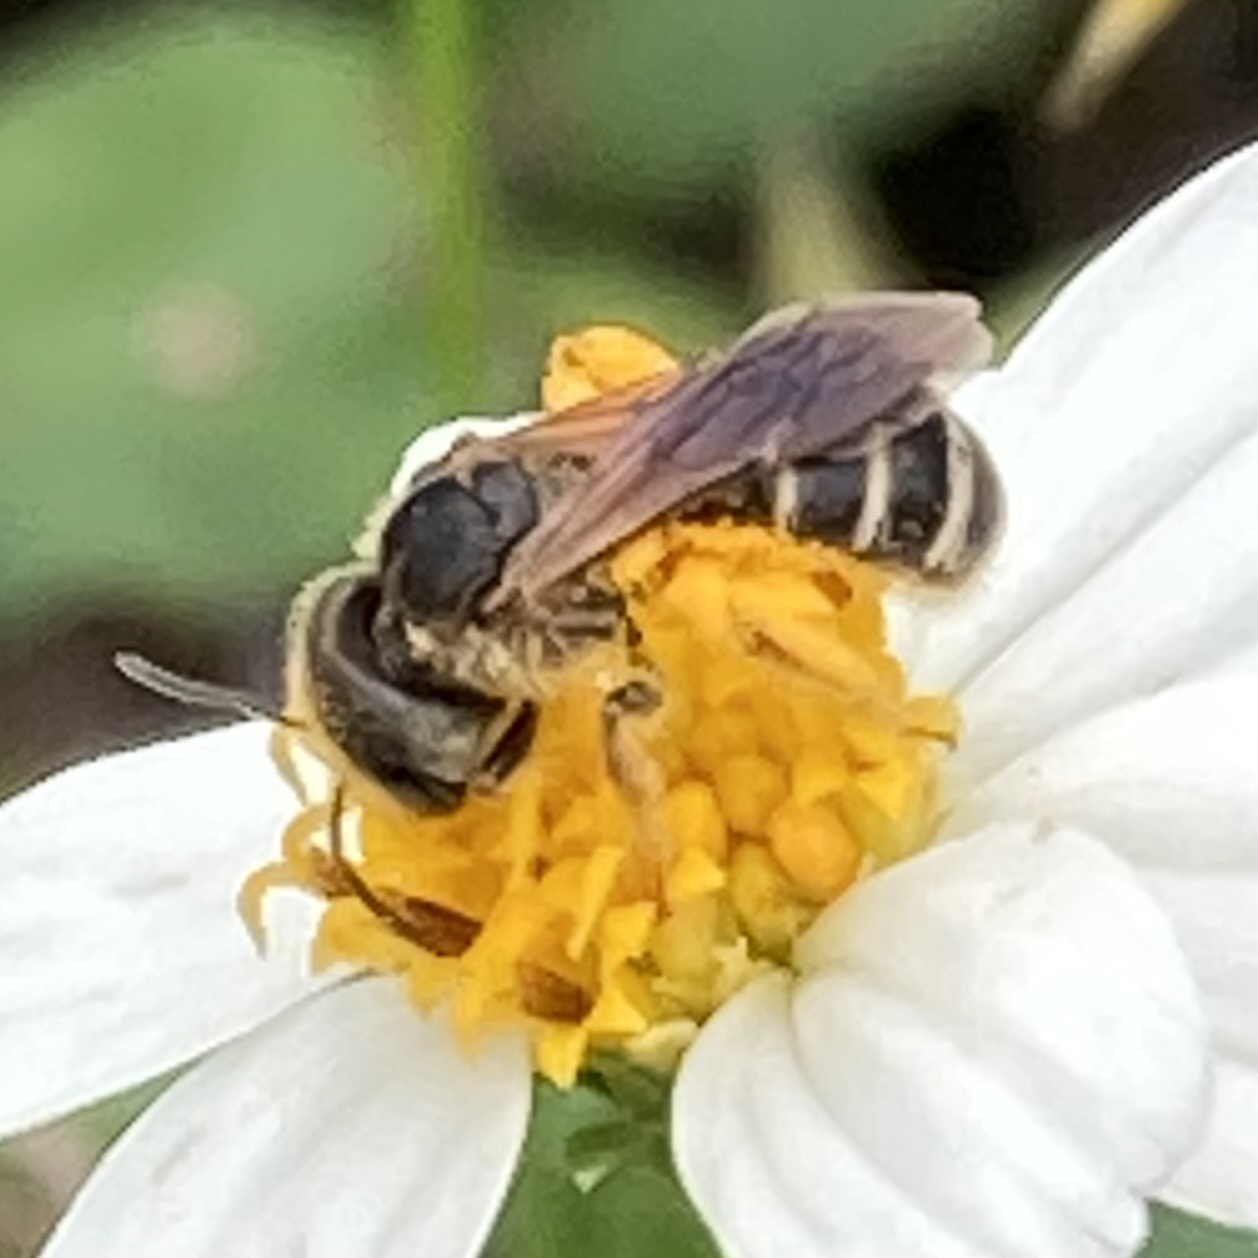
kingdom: Animalia
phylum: Arthropoda
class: Insecta
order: Hymenoptera
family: Halictidae
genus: Halictus
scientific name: Halictus poeyi
